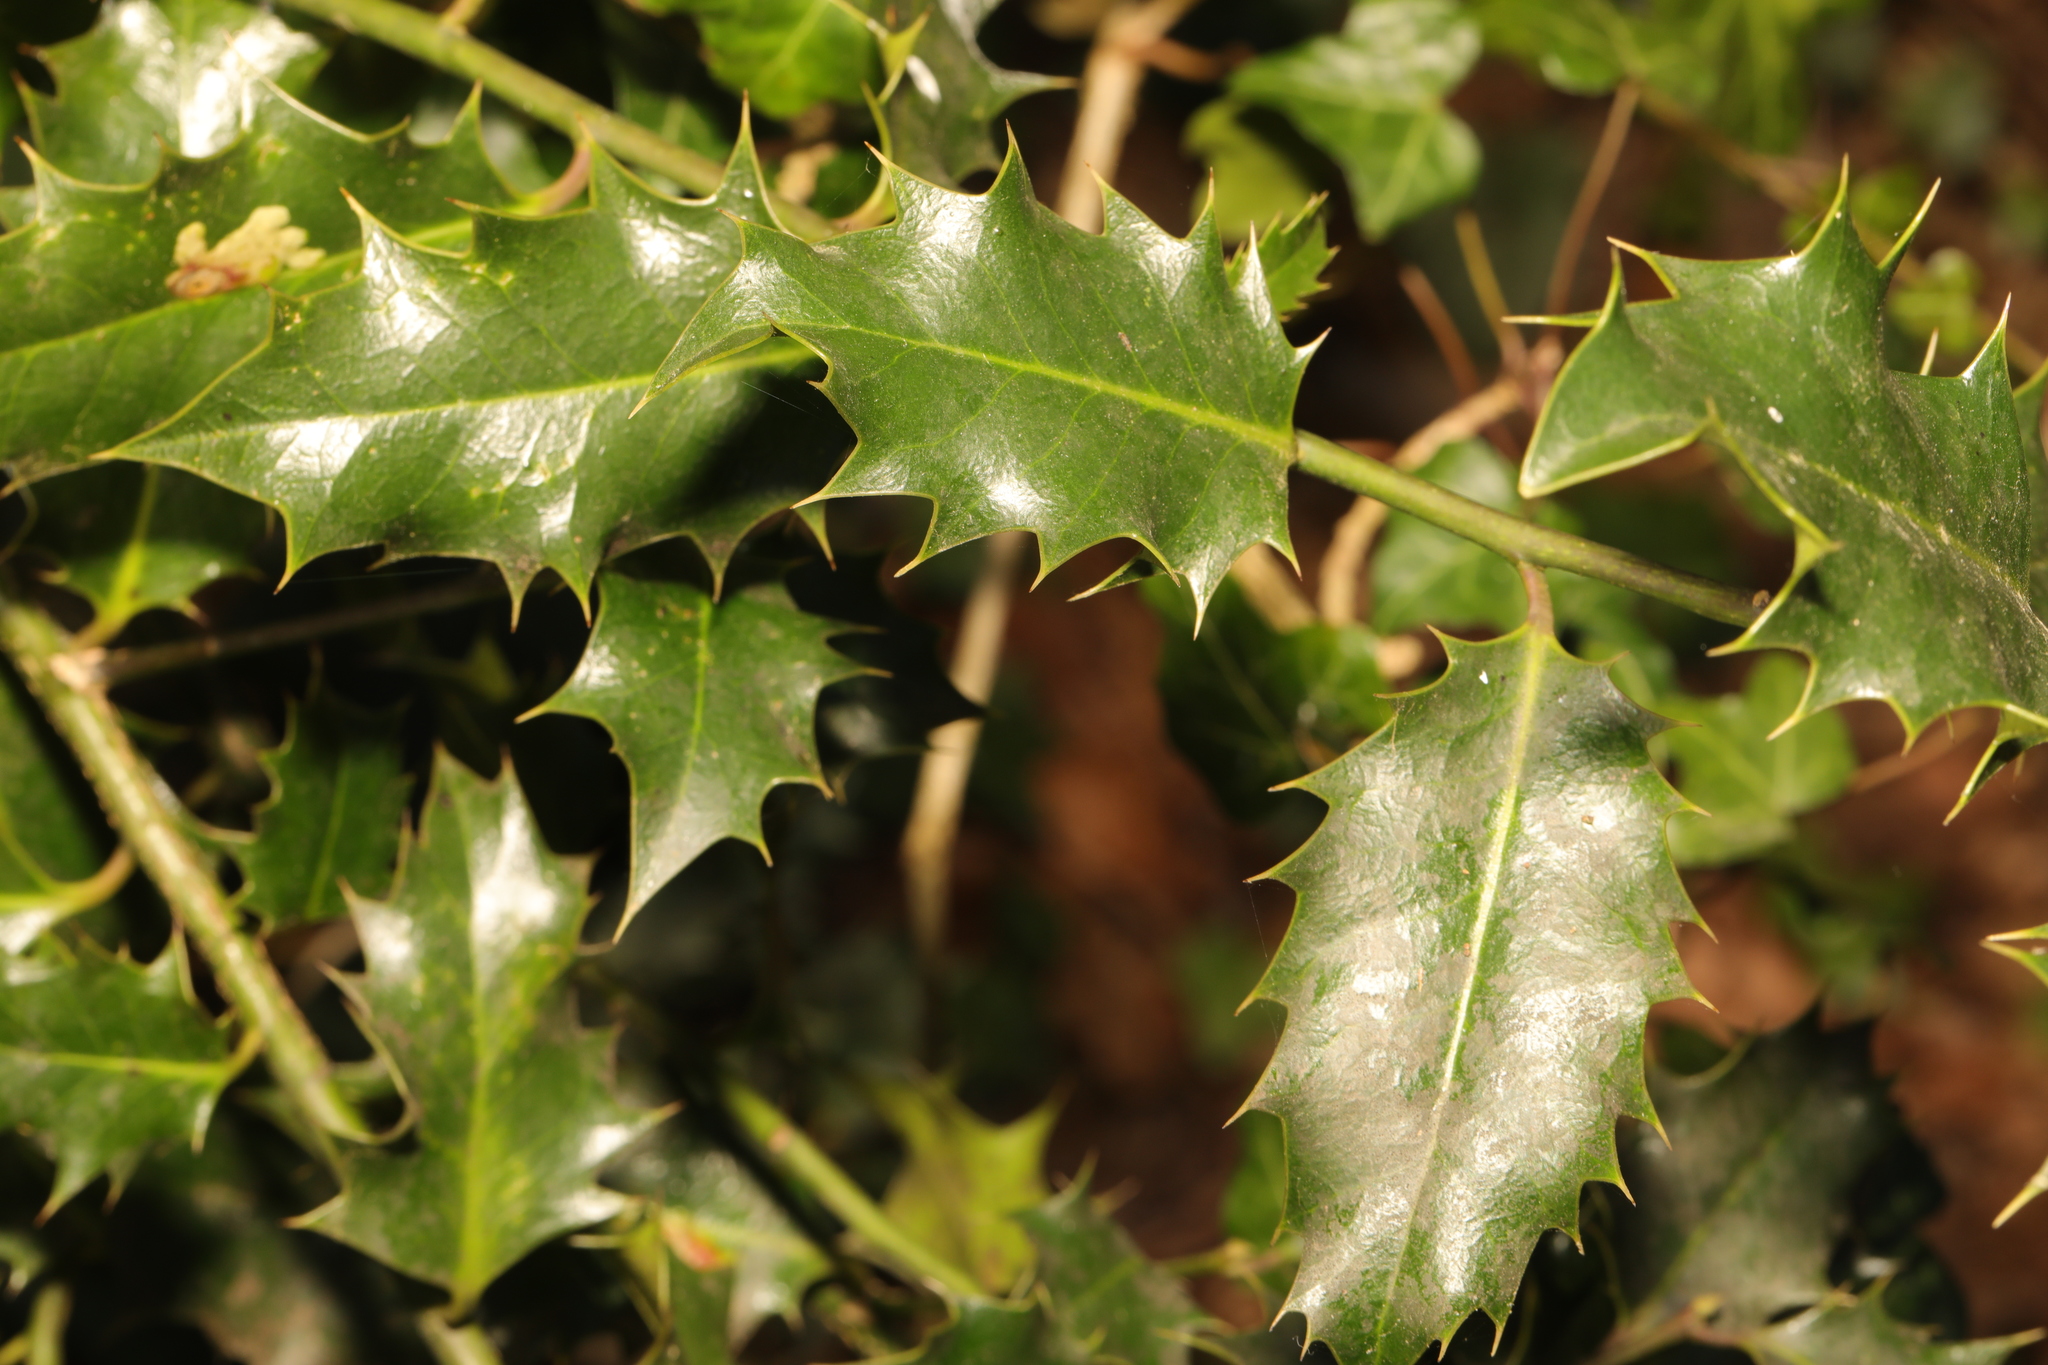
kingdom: Plantae
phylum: Tracheophyta
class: Magnoliopsida
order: Aquifoliales
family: Aquifoliaceae
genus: Ilex
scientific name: Ilex aquifolium
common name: English holly
